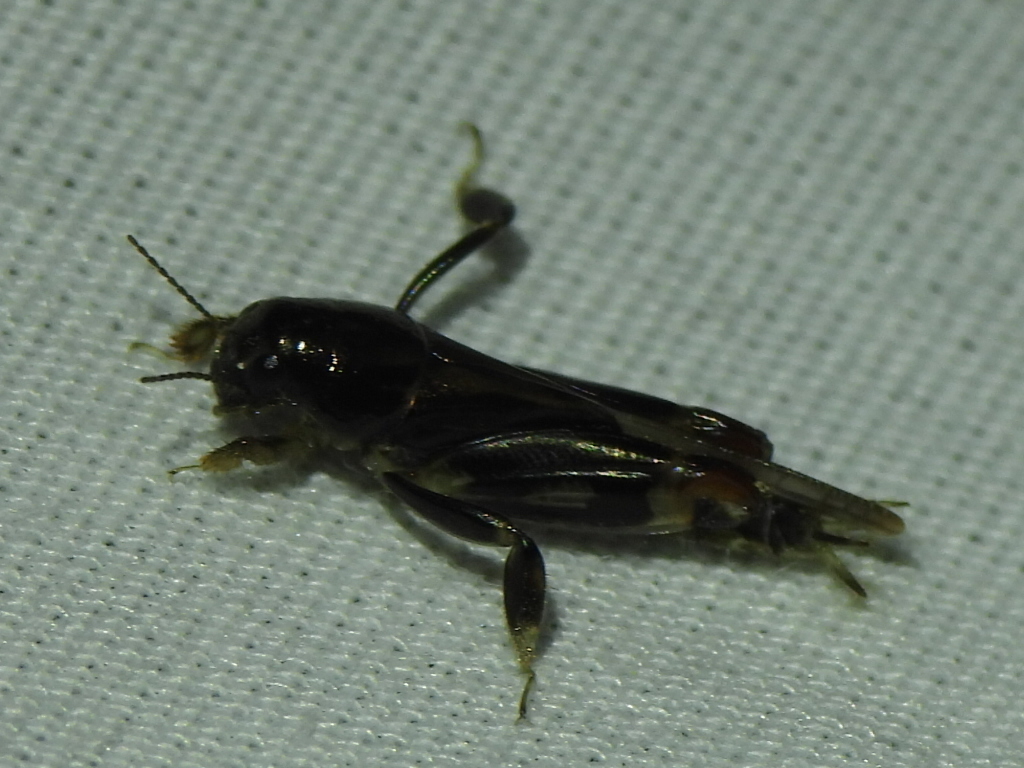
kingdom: Animalia
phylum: Arthropoda
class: Insecta
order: Orthoptera
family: Tridactylidae
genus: Neotridactylus
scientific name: Neotridactylus apicialis
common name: Larger pygmy locust
